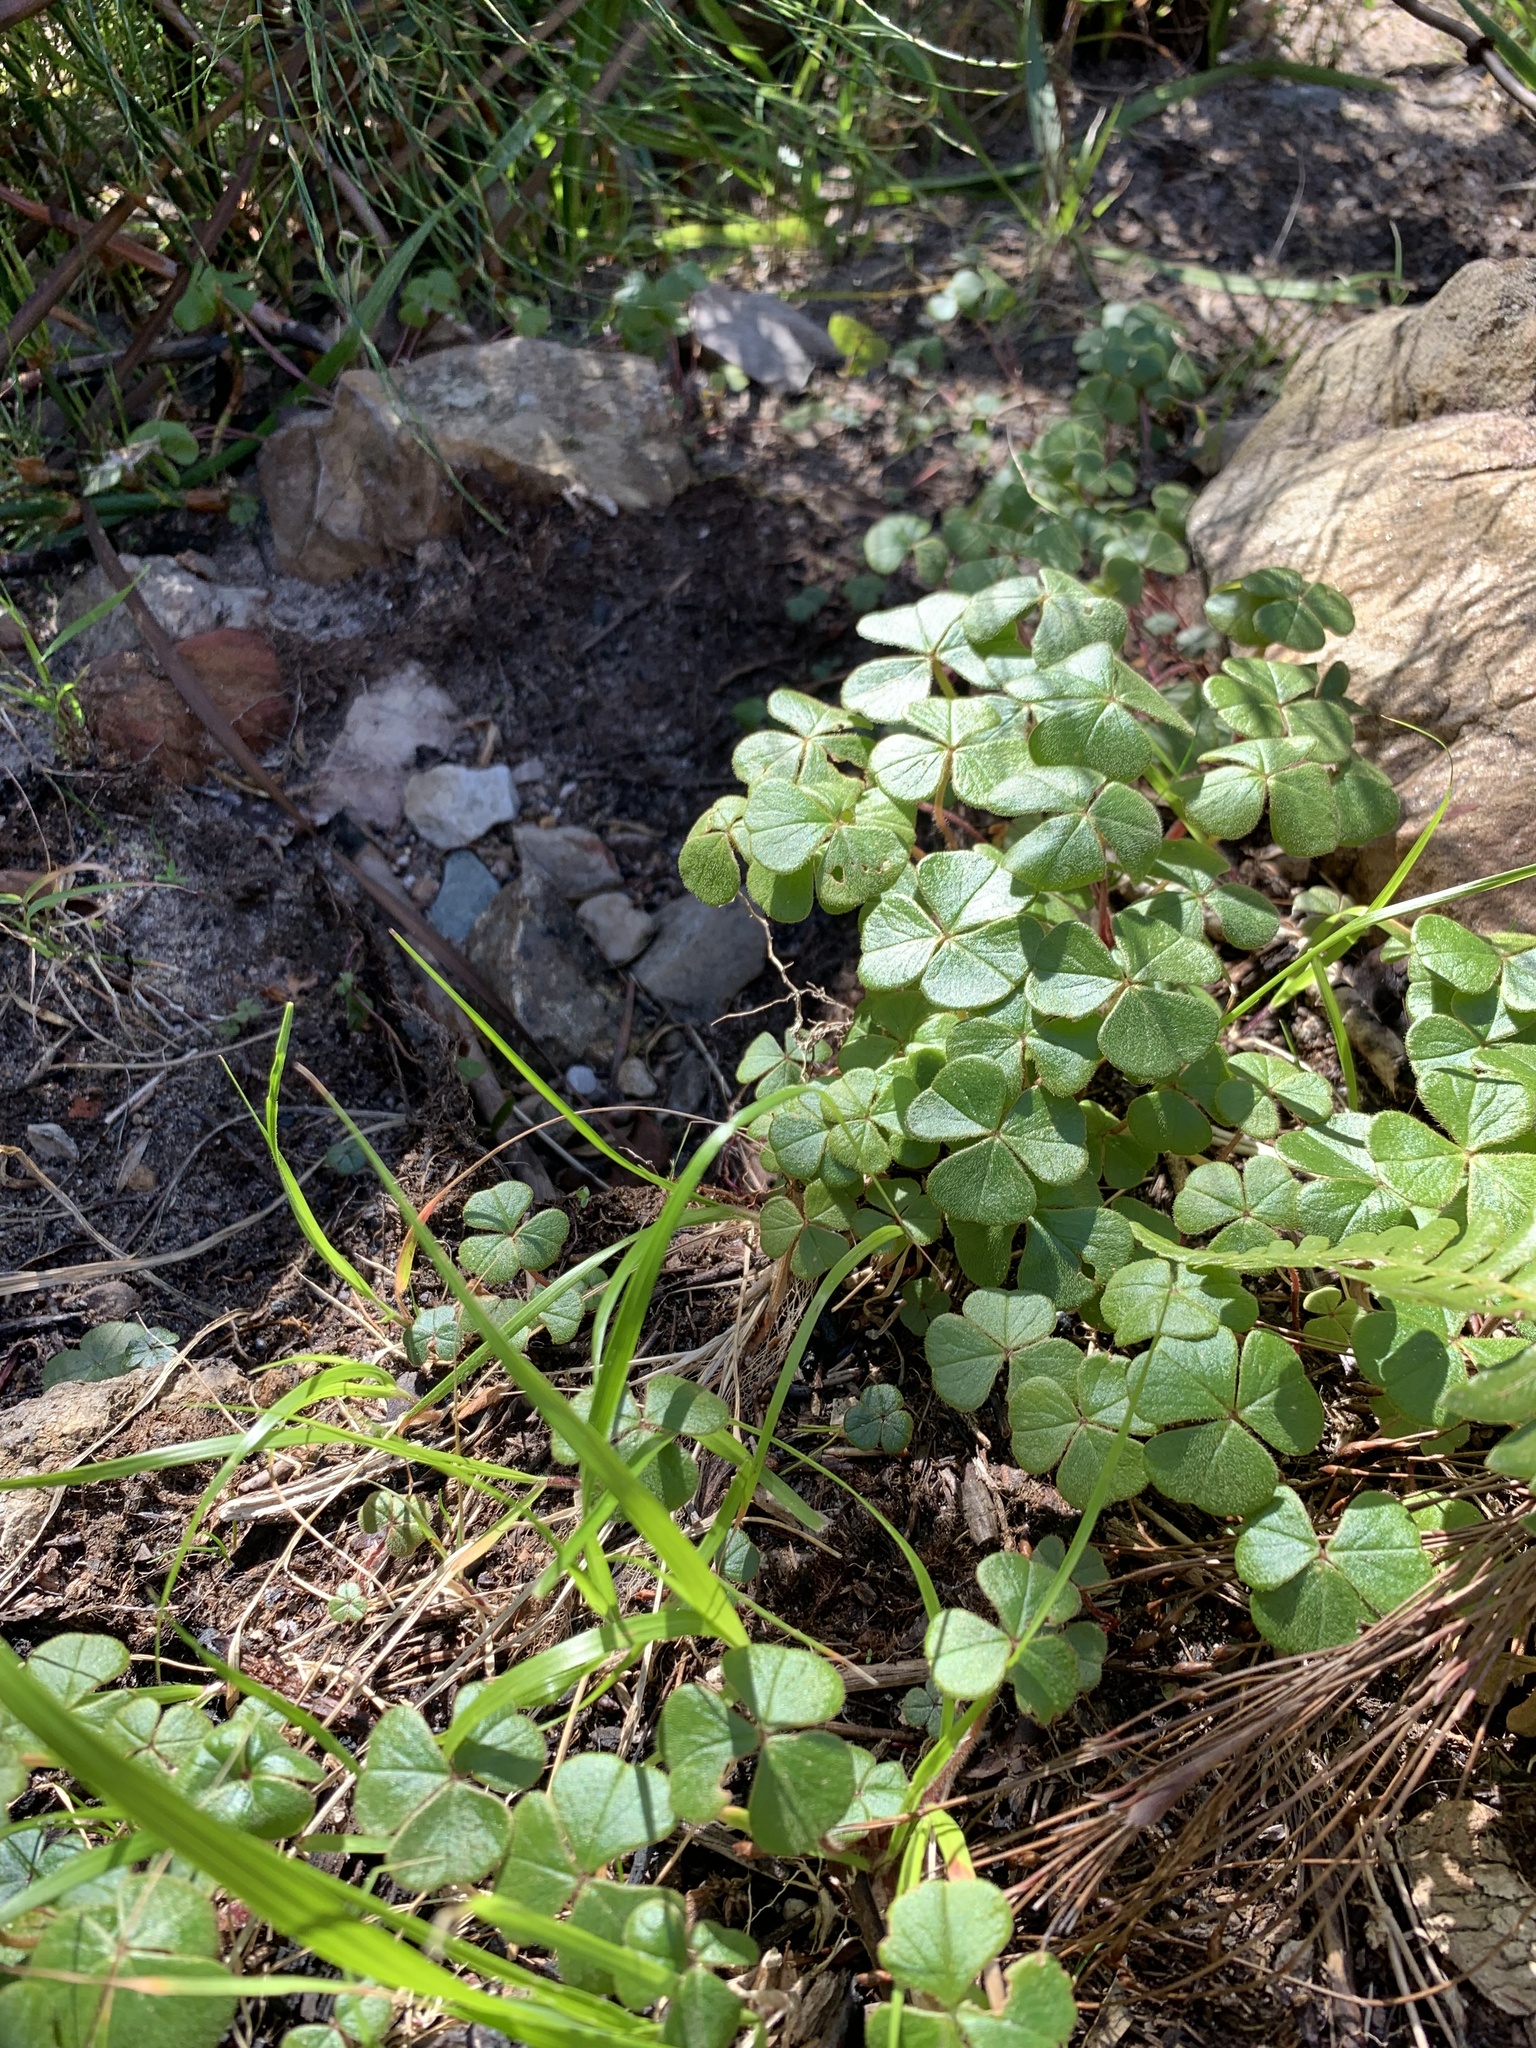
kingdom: Plantae
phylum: Tracheophyta
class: Magnoliopsida
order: Oxalidales
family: Oxalidaceae
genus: Oxalis
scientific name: Oxalis truncatula
